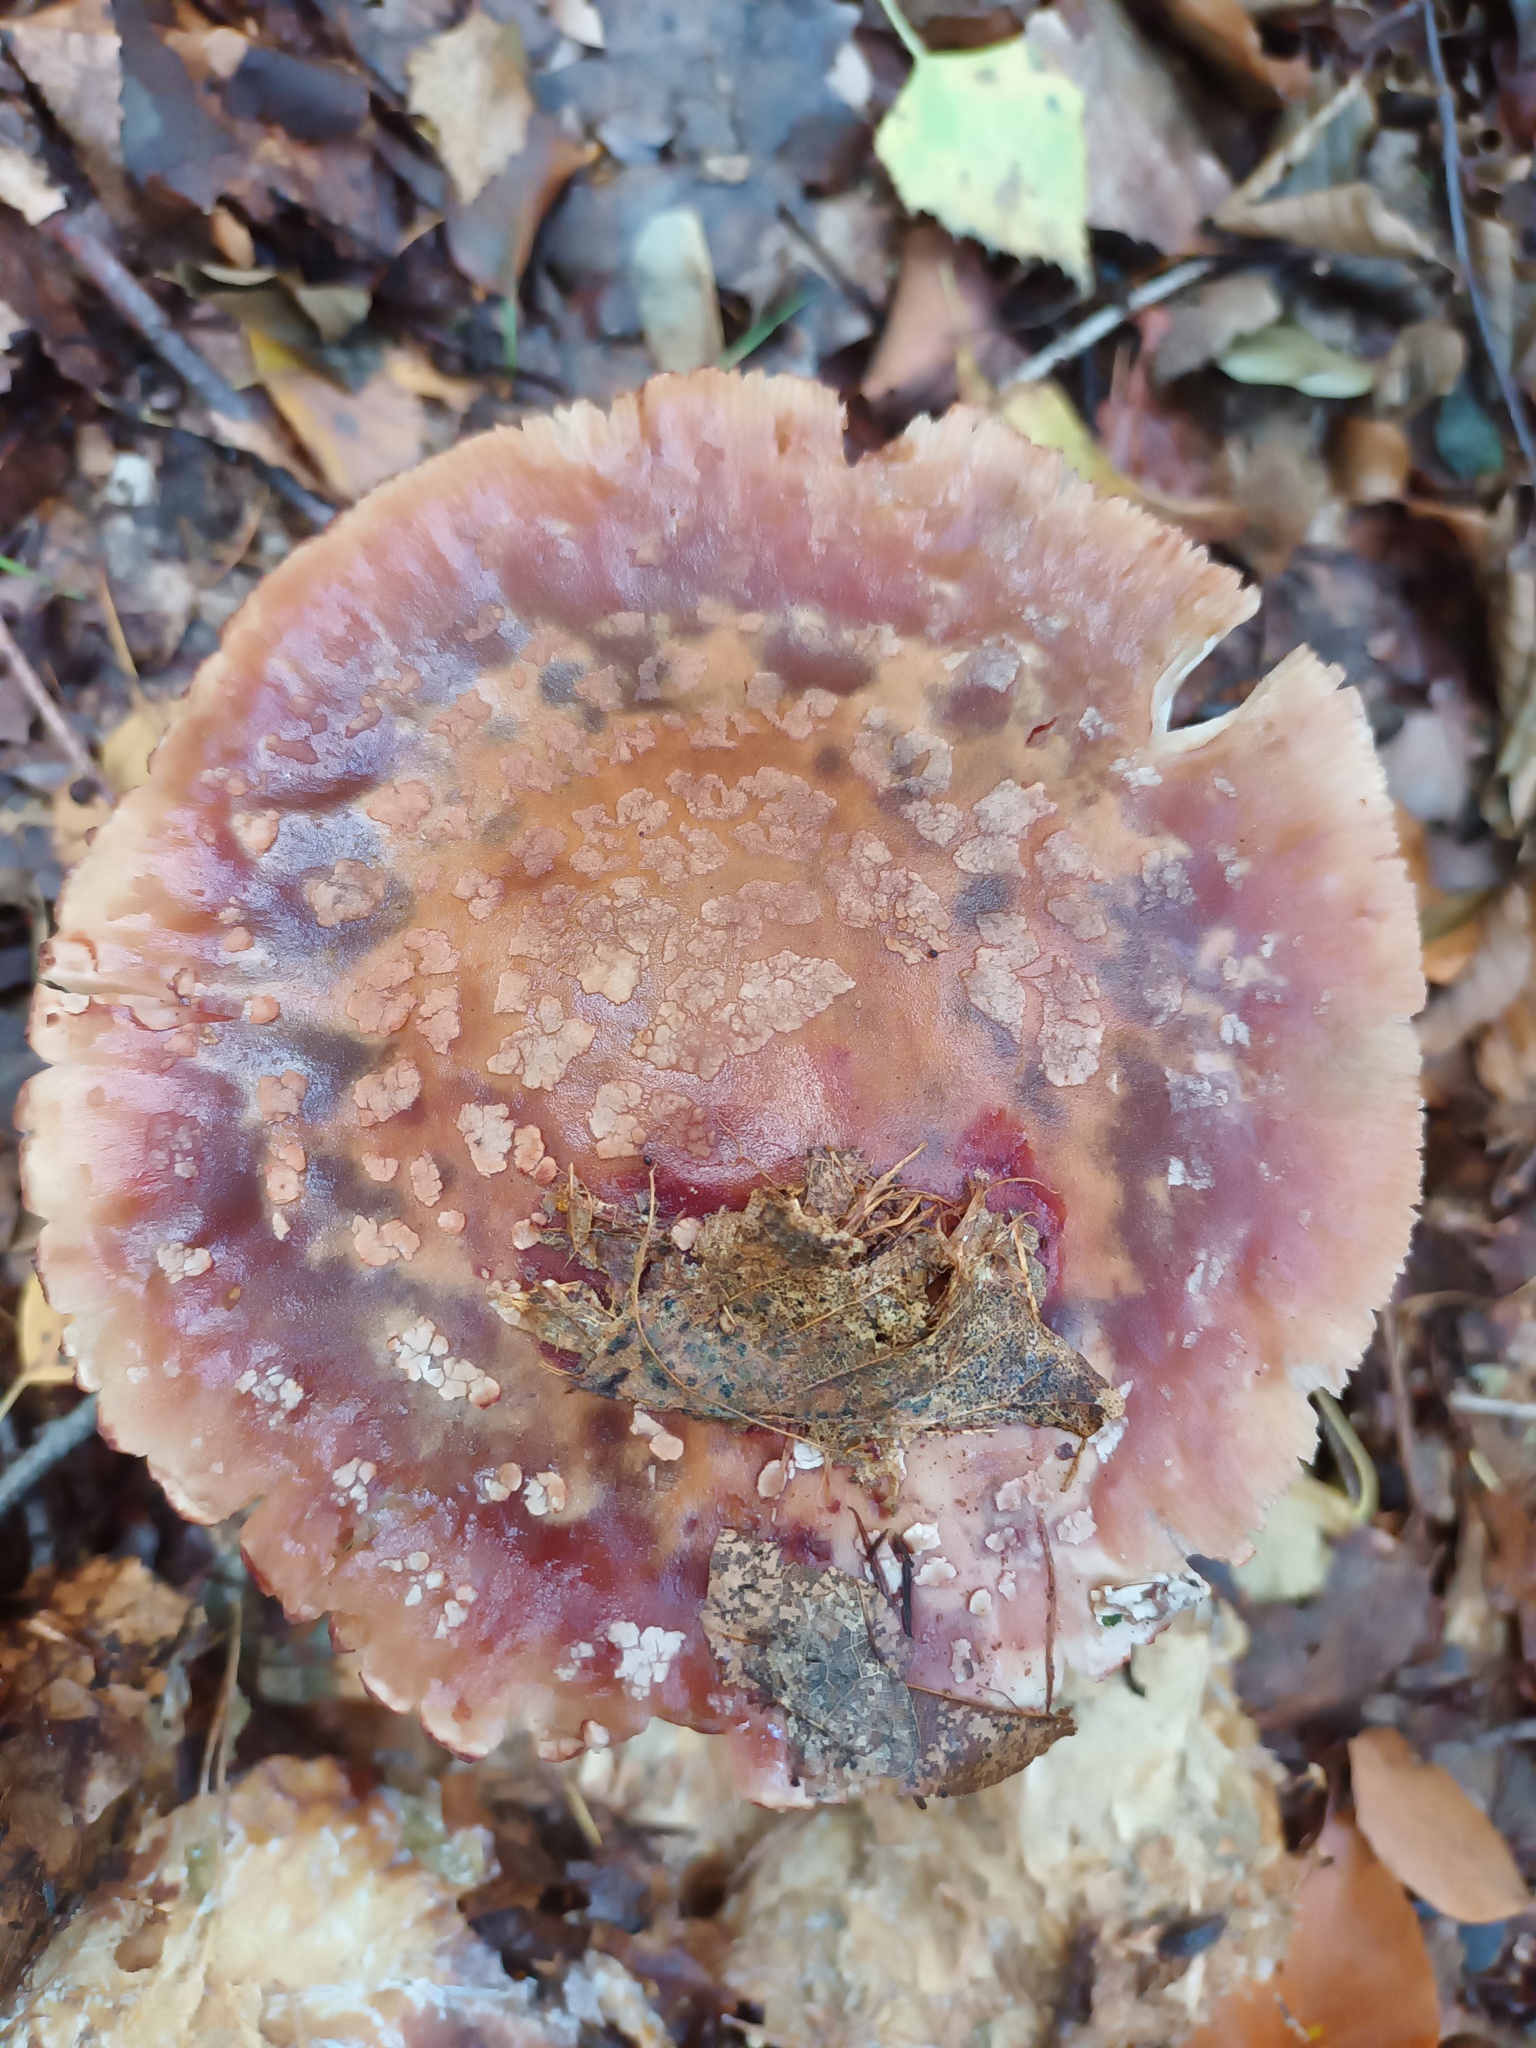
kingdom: Fungi
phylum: Basidiomycota
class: Agaricomycetes
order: Agaricales
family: Amanitaceae
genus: Amanita
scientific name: Amanita rubescens
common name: Blusher
